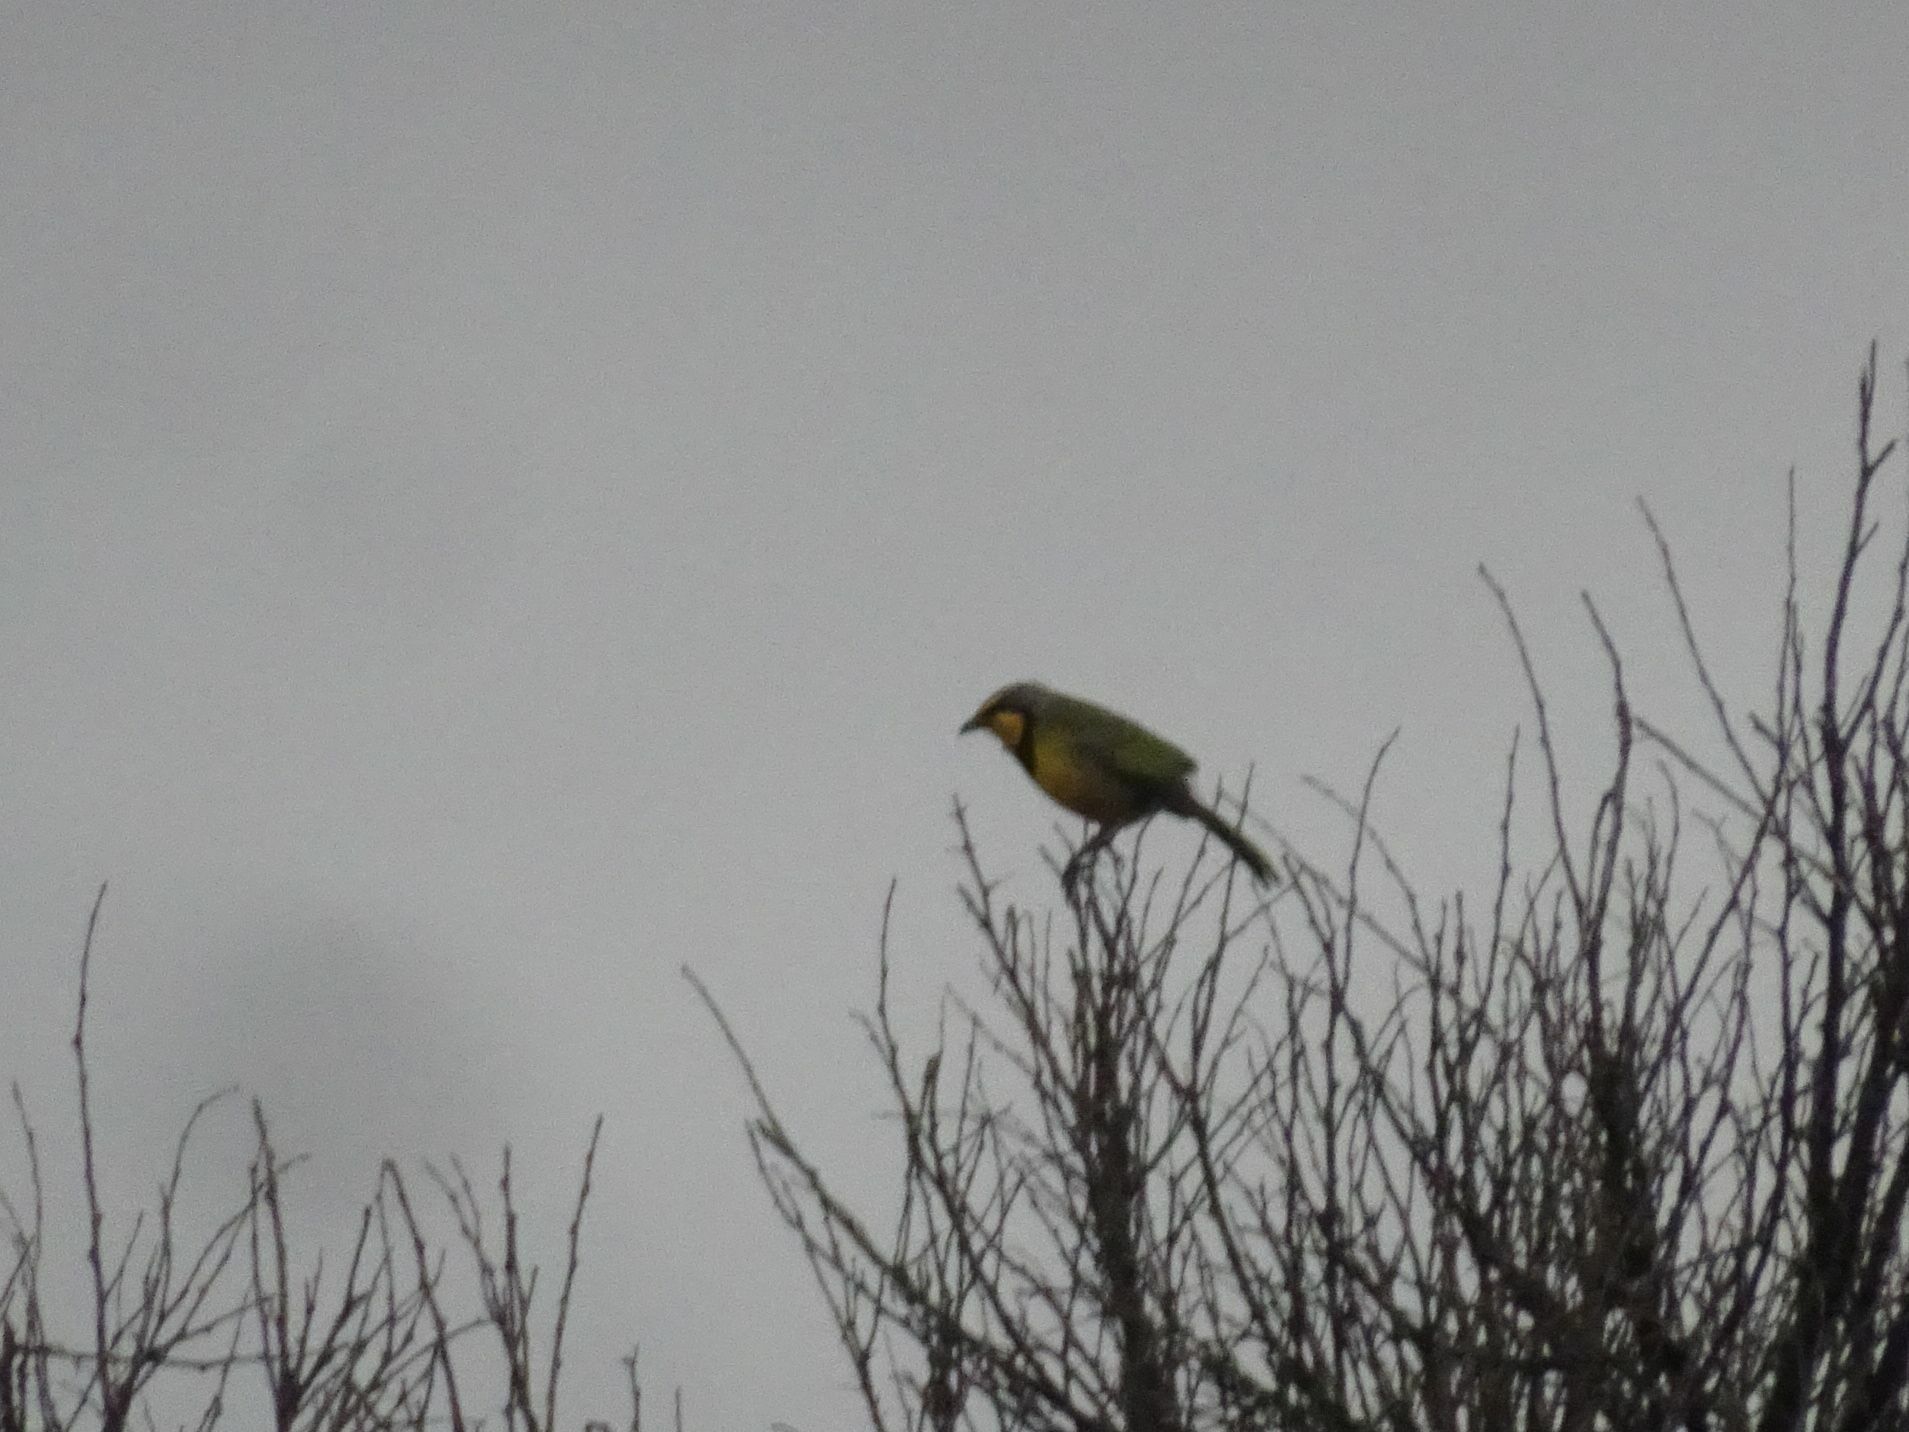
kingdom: Animalia
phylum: Chordata
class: Aves
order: Passeriformes
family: Malaconotidae
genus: Telophorus
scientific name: Telophorus zeylonus
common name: Bokmakierie
